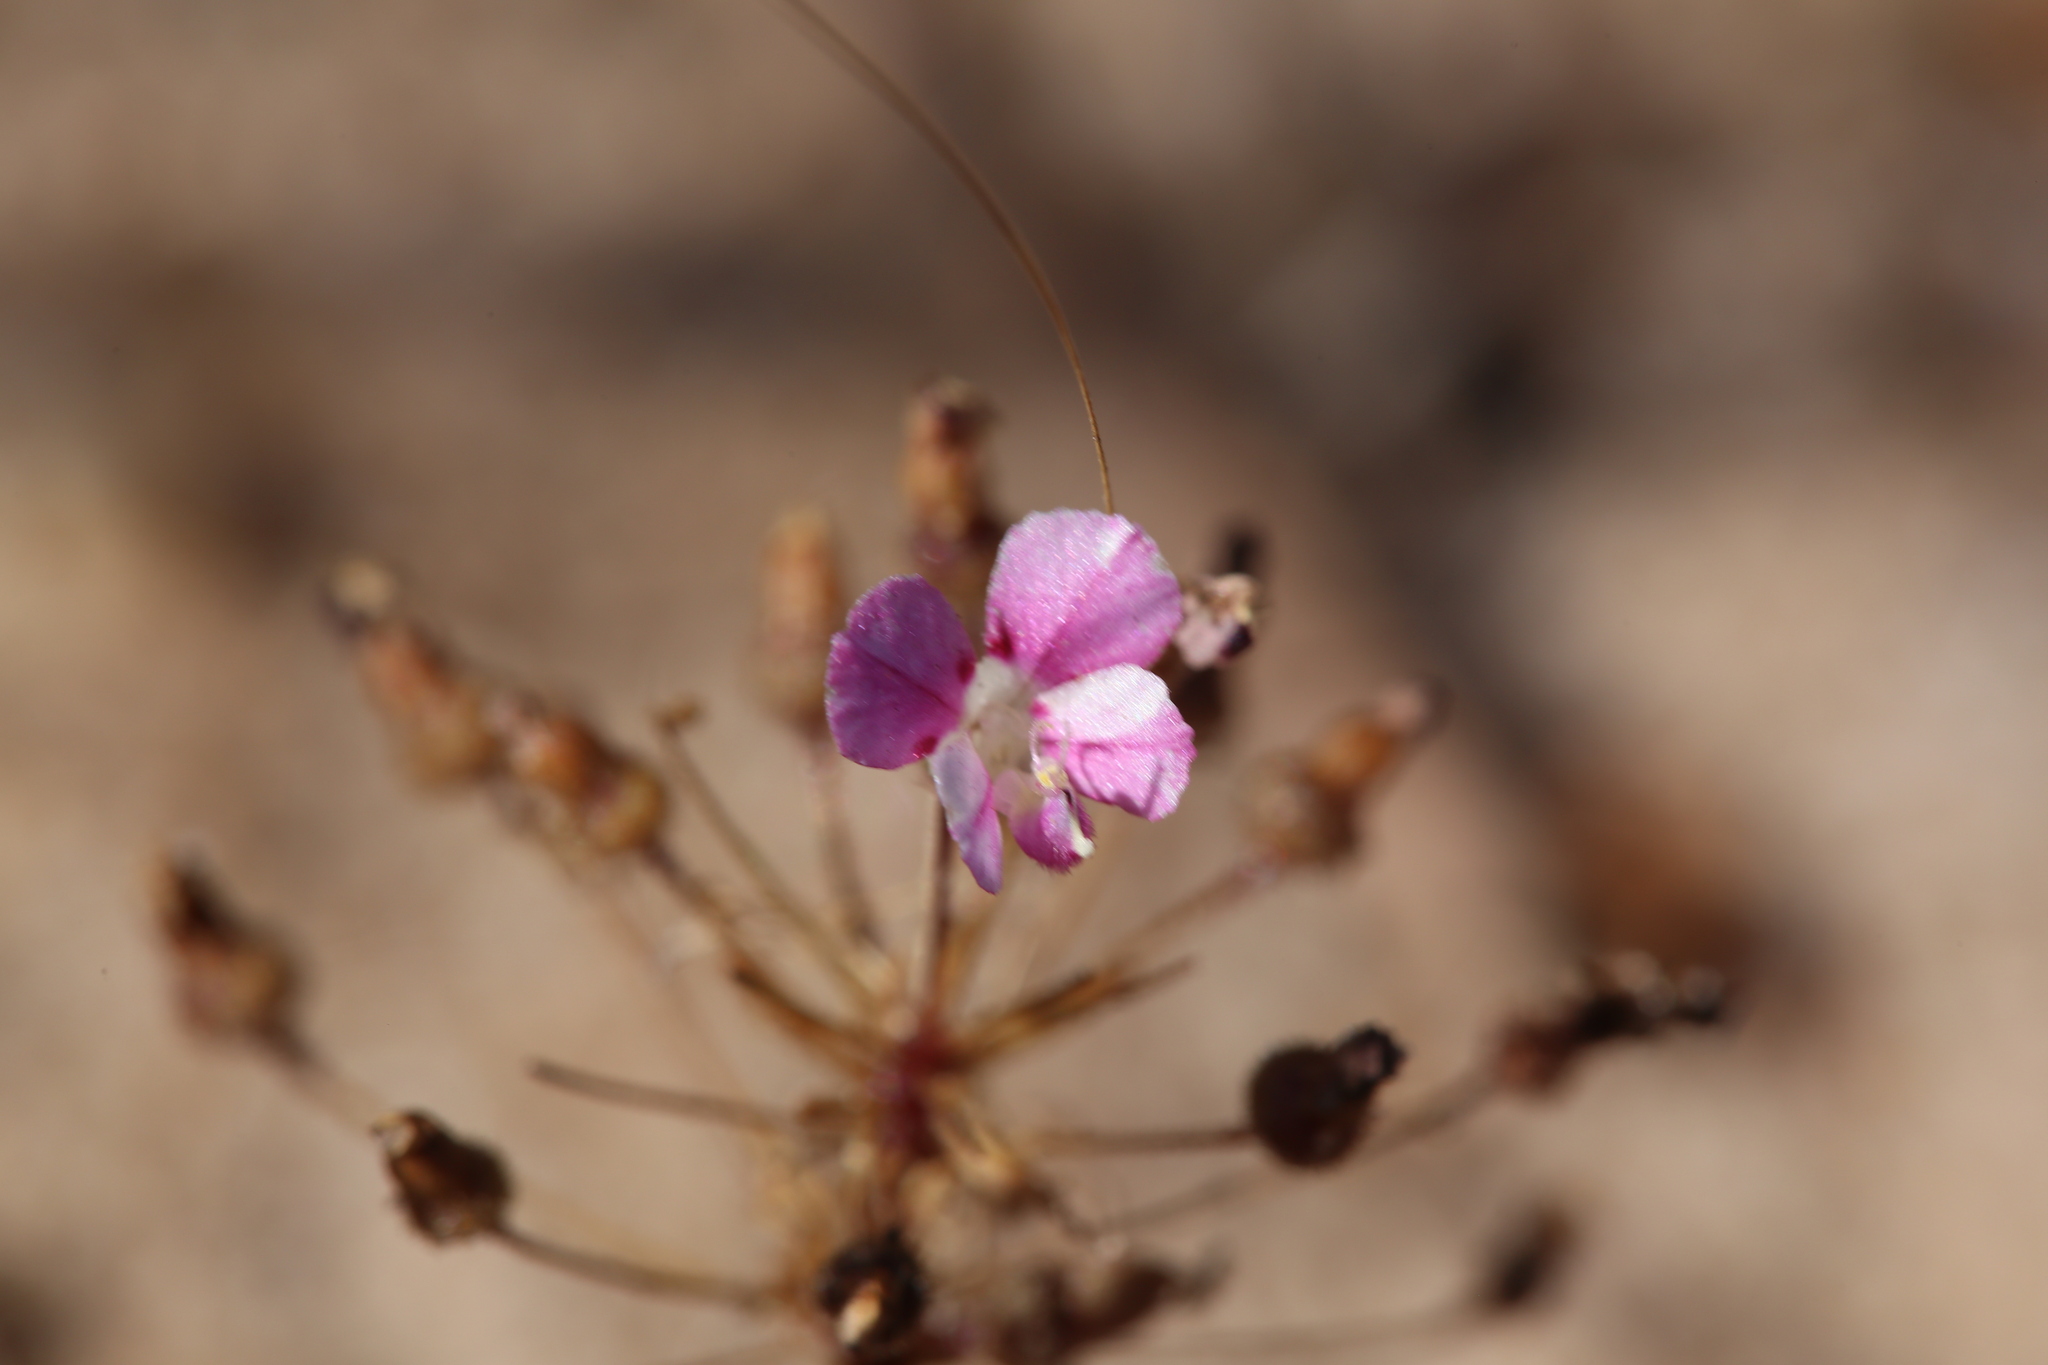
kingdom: Plantae
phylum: Tracheophyta
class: Magnoliopsida
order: Asterales
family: Stylidiaceae
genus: Levenhookia
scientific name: Levenhookia octomaculata
